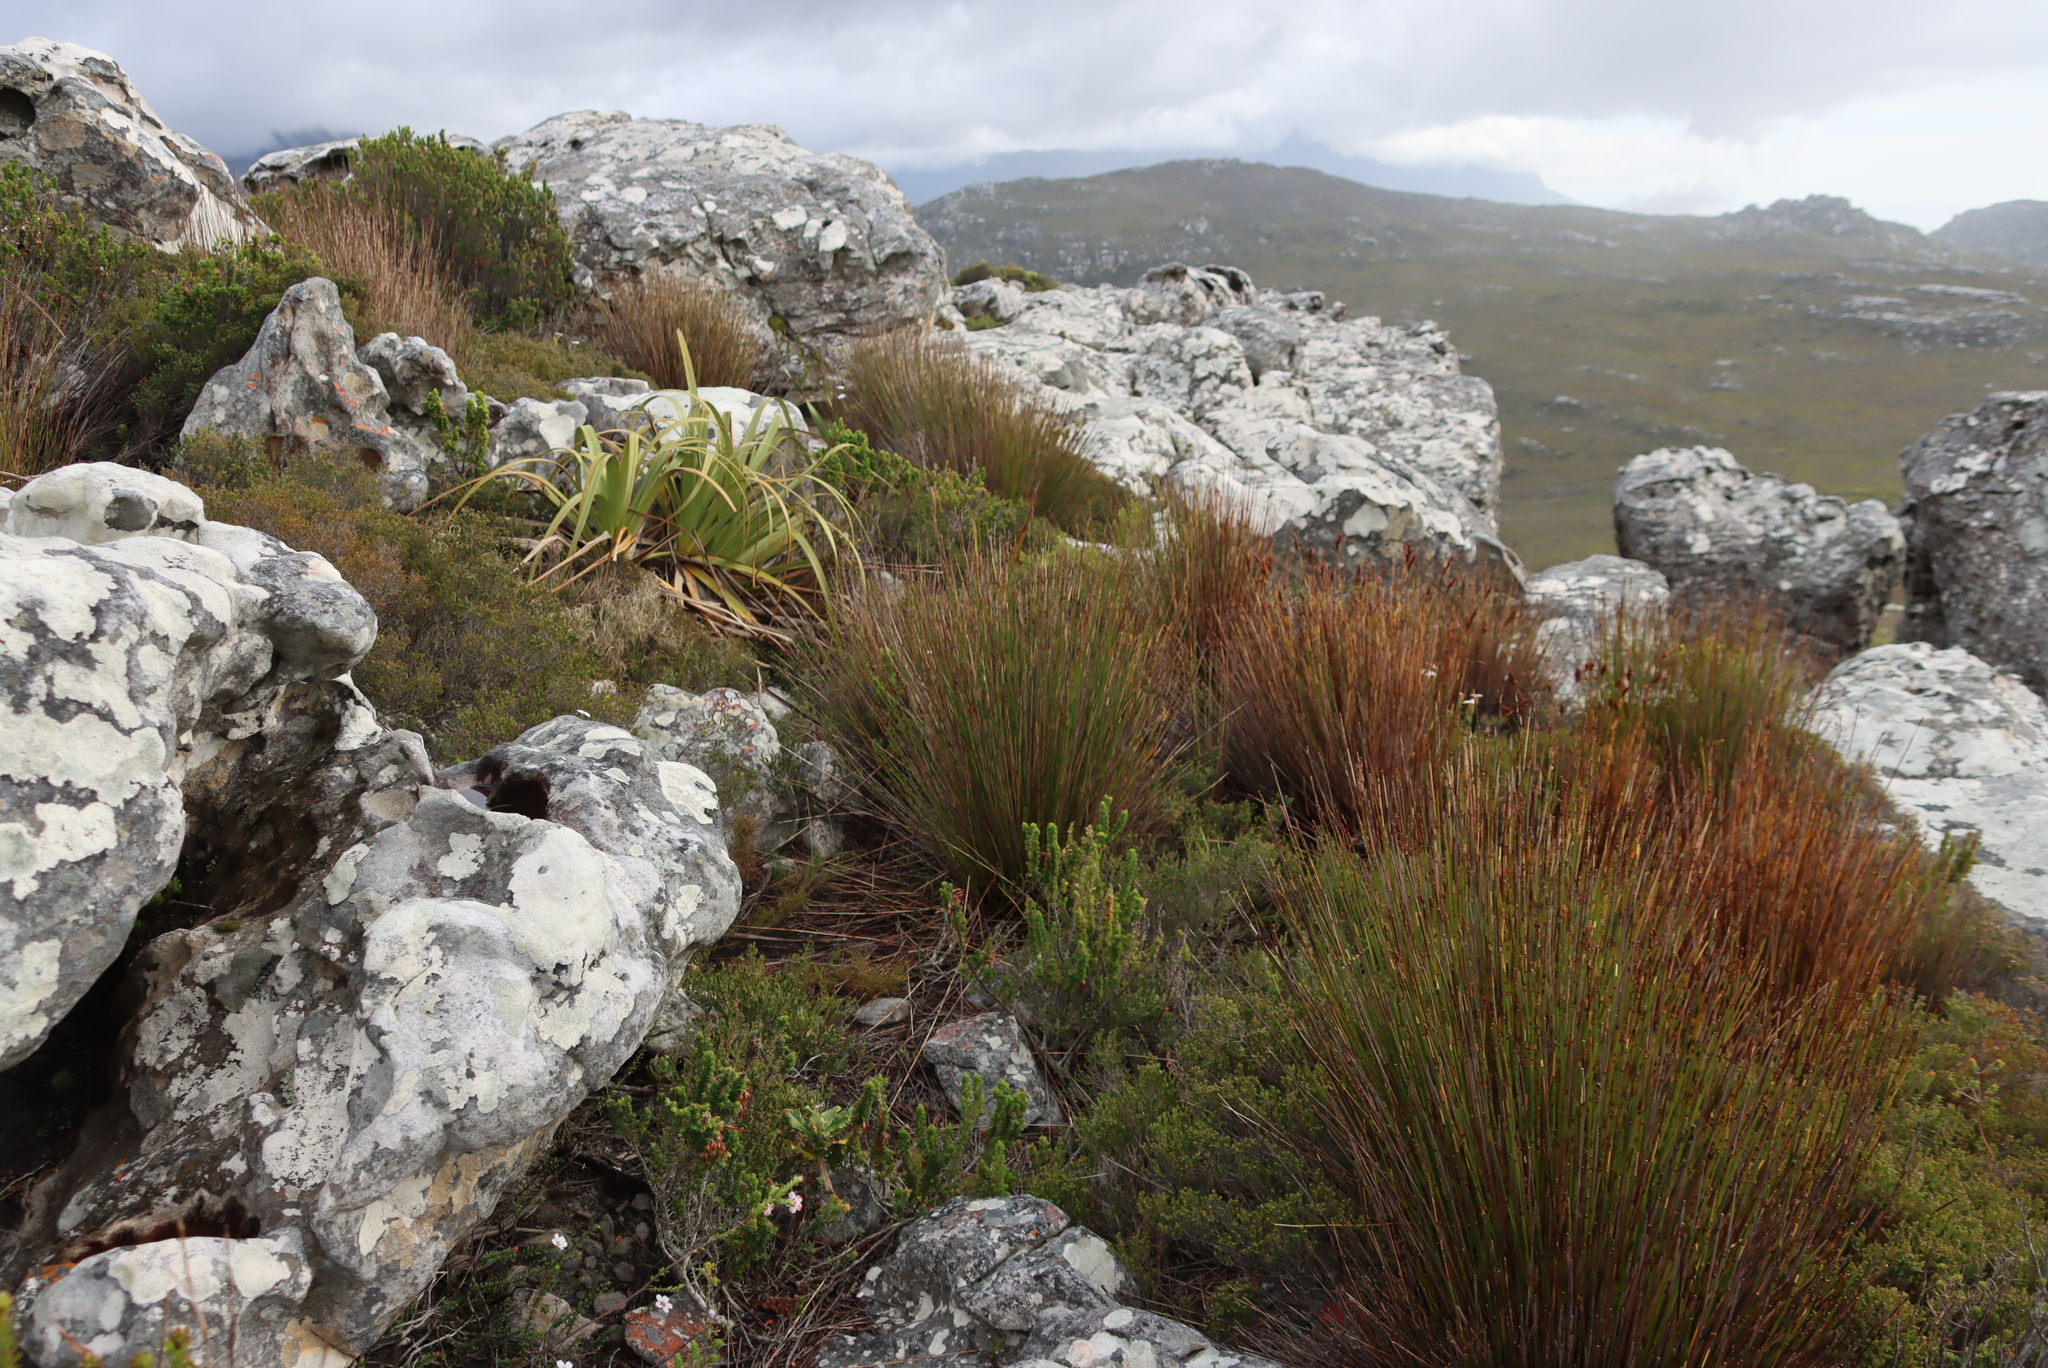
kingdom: Plantae
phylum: Tracheophyta
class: Liliopsida
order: Poales
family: Cyperaceae
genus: Tetraria
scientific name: Tetraria thermalis
